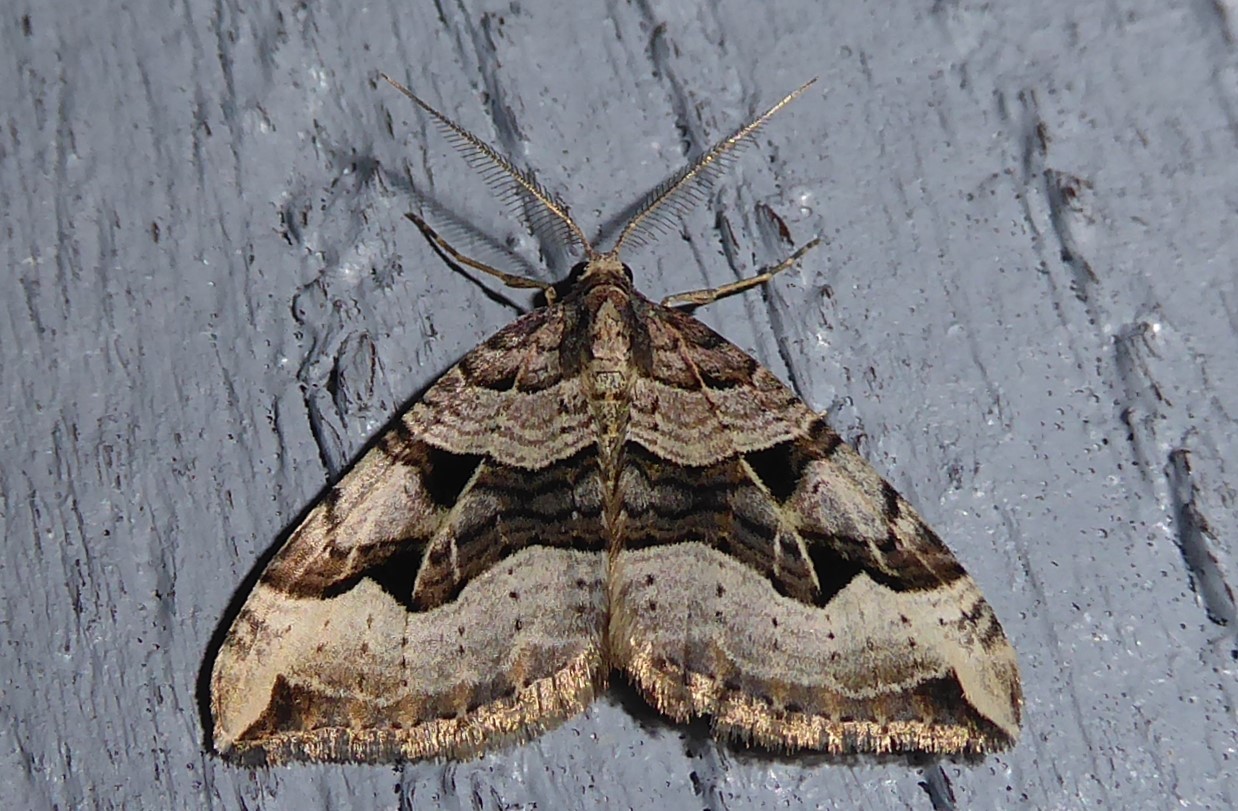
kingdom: Animalia
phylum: Arthropoda
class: Insecta
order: Lepidoptera
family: Geometridae
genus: Xanthorhoe
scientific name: Xanthorhoe semifissata
